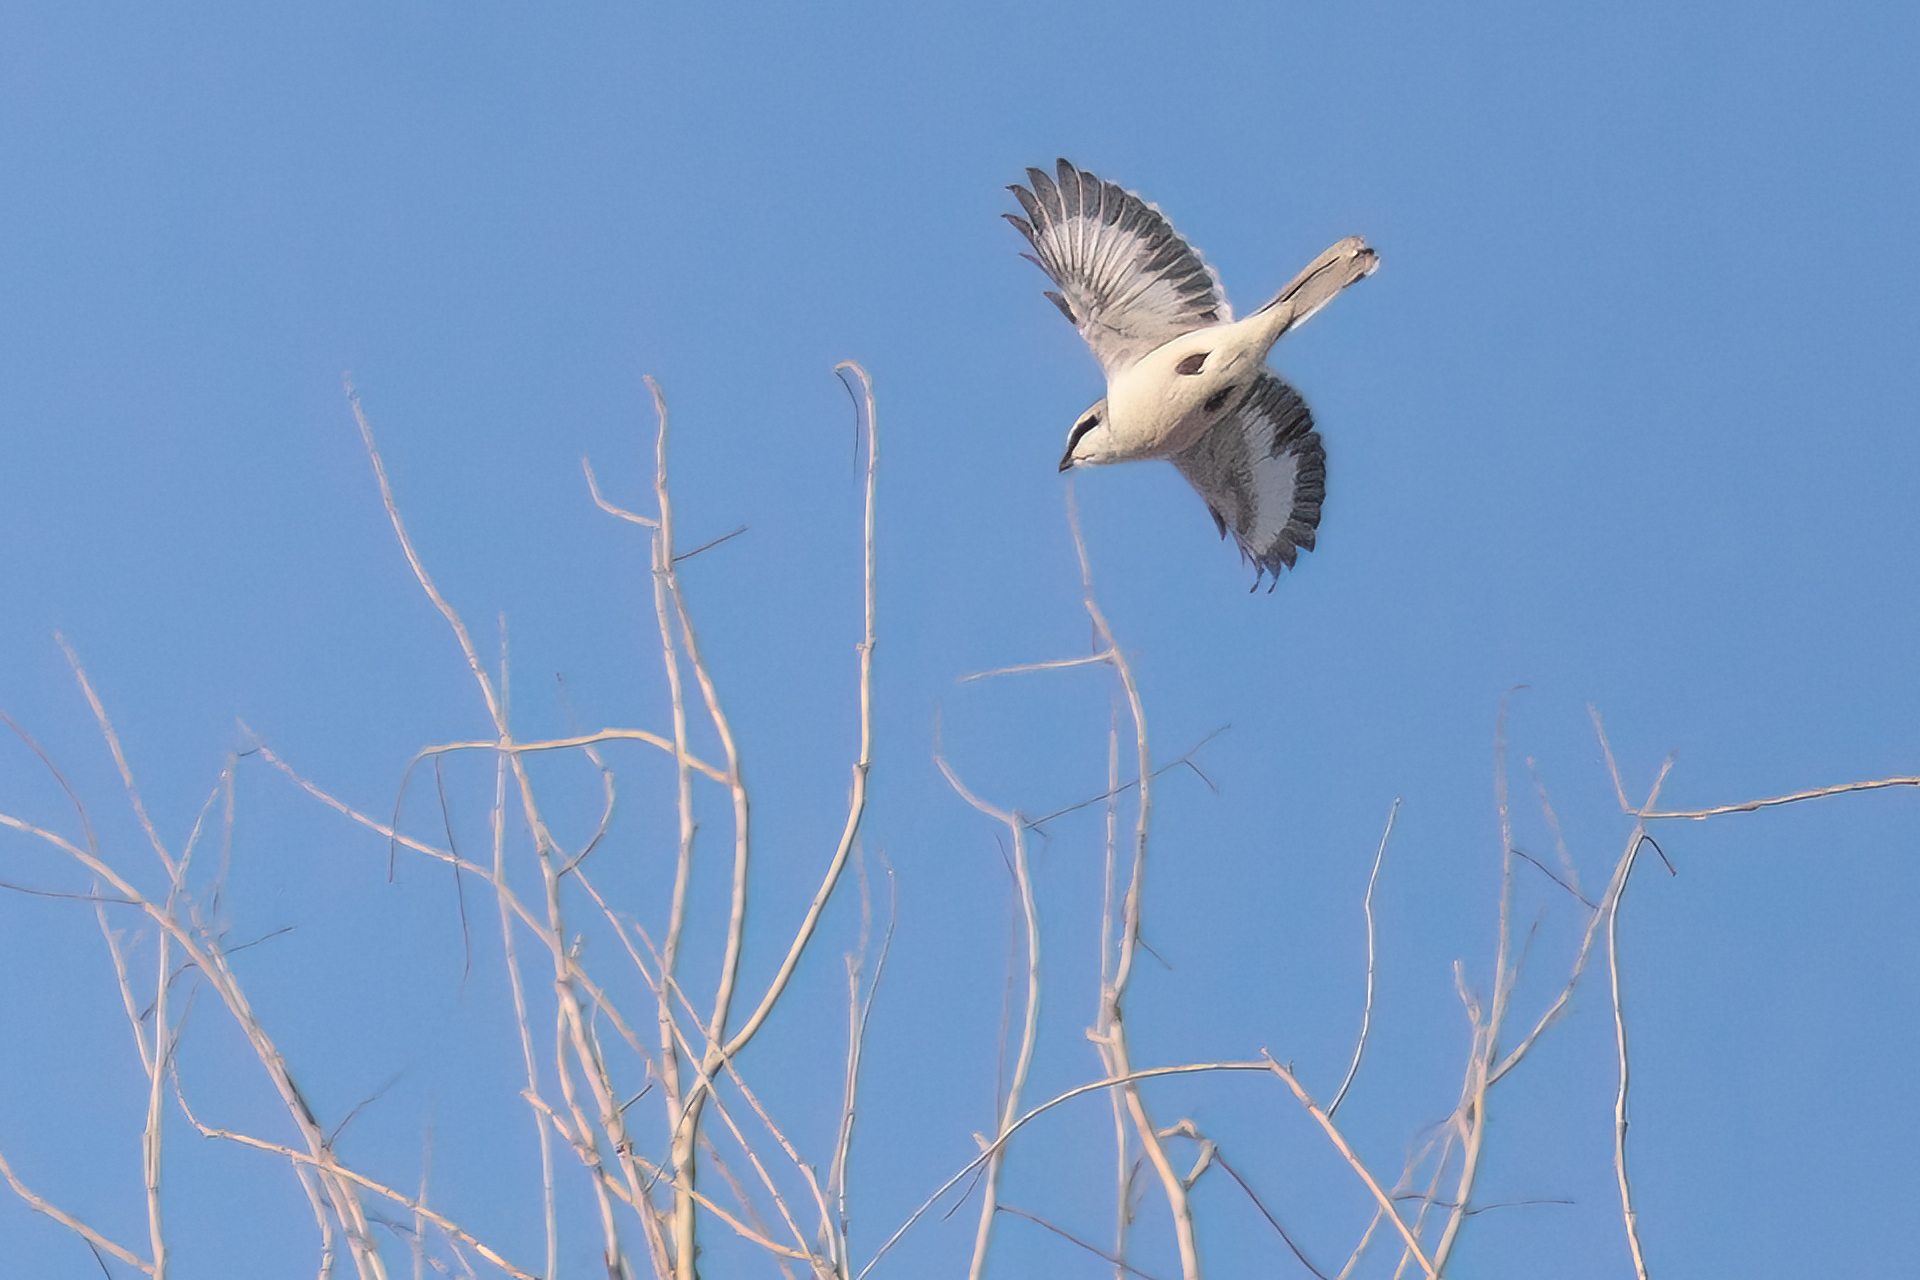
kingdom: Animalia
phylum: Chordata
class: Aves
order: Passeriformes
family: Laniidae
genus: Lanius
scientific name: Lanius excubitor
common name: Great grey shrike
